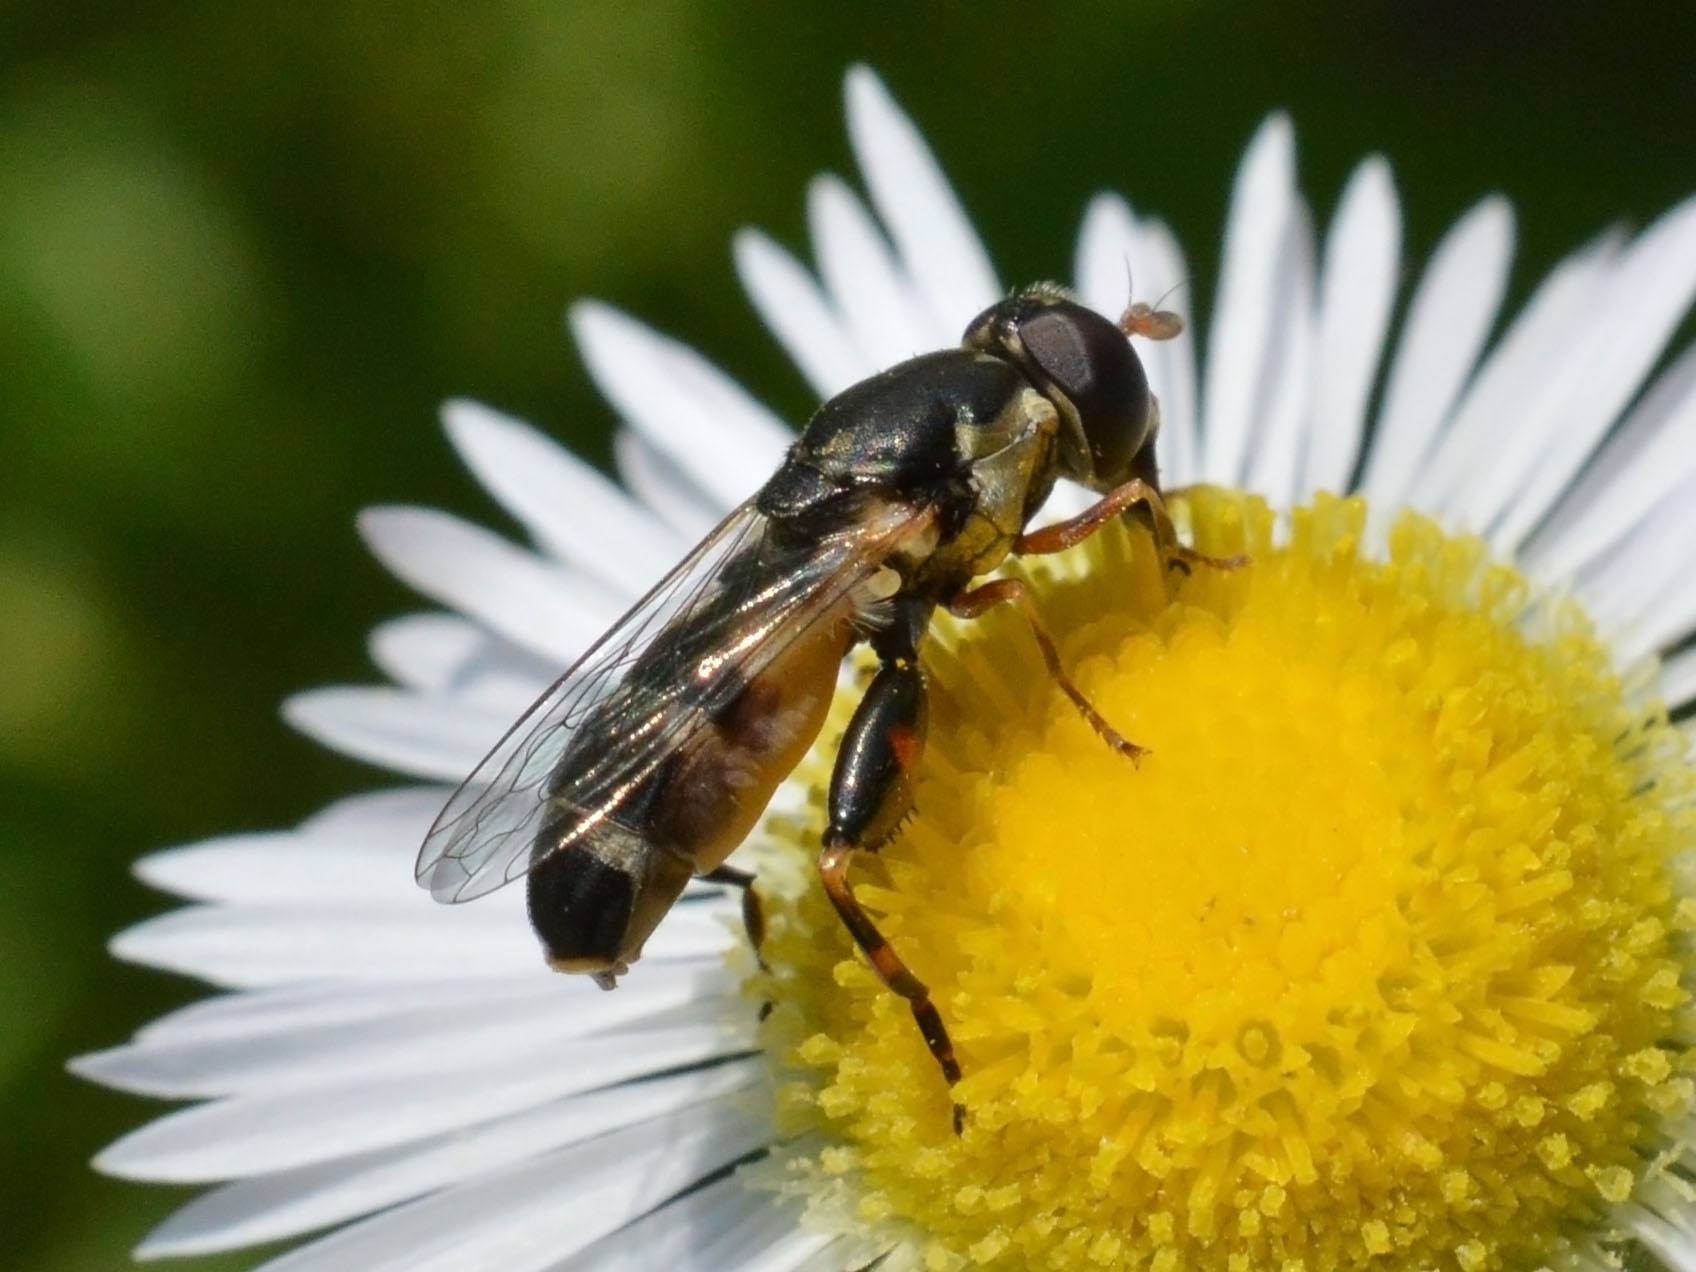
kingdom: Animalia
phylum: Arthropoda
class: Insecta
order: Diptera
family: Syrphidae
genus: Syritta
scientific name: Syritta pipiens
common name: Hover fly
